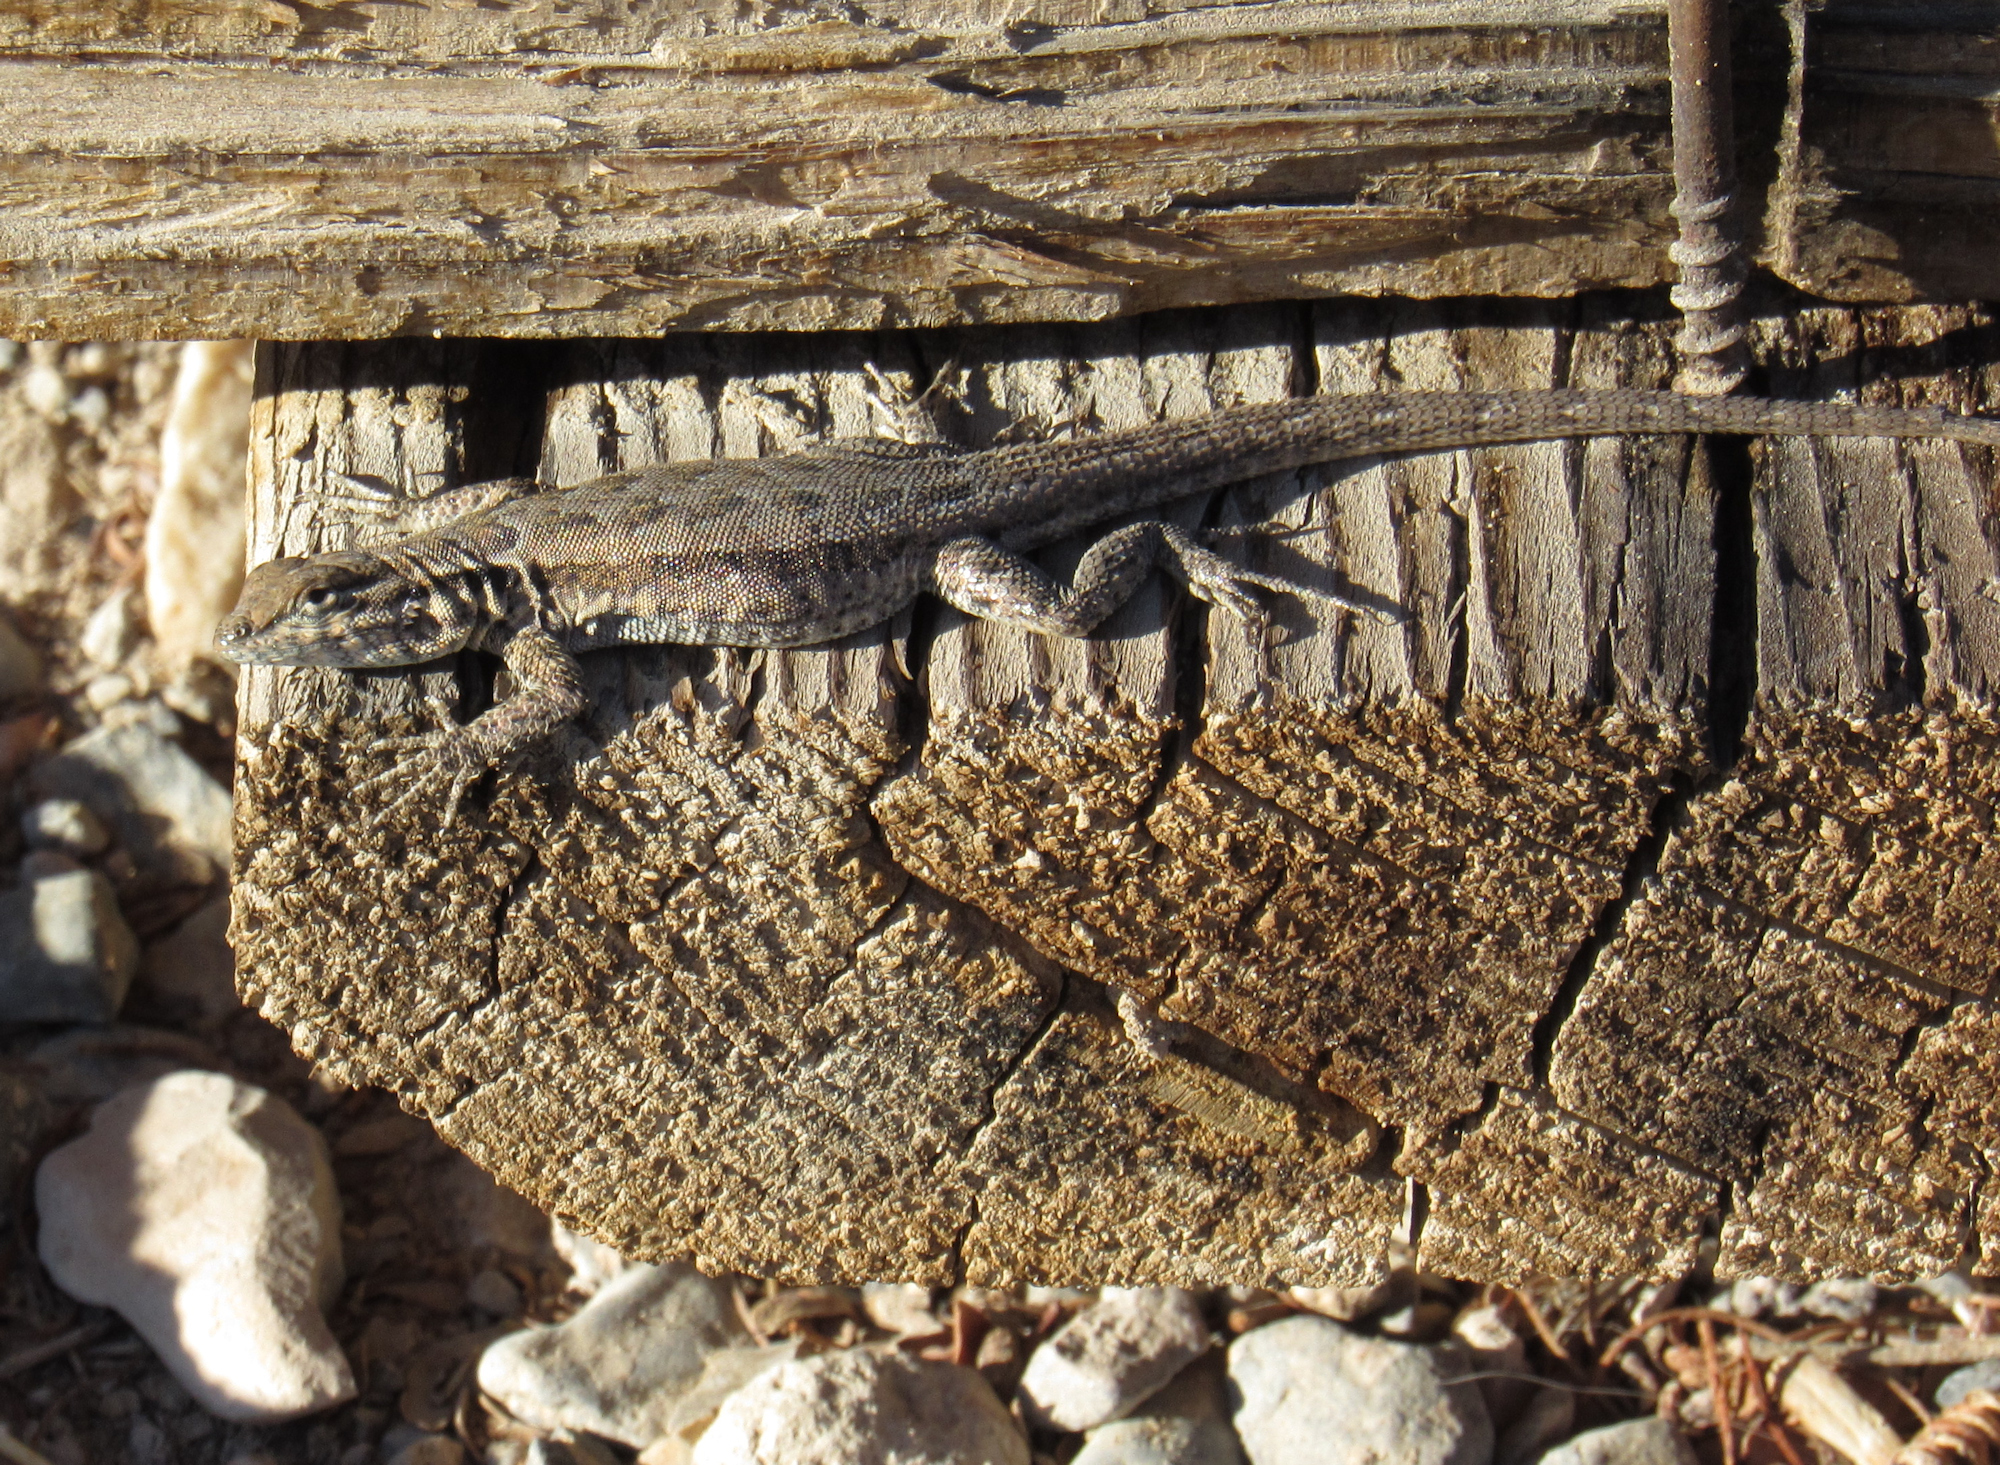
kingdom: Animalia
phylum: Chordata
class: Squamata
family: Phrynosomatidae
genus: Uta
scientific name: Uta stansburiana
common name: Side-blotched lizard
